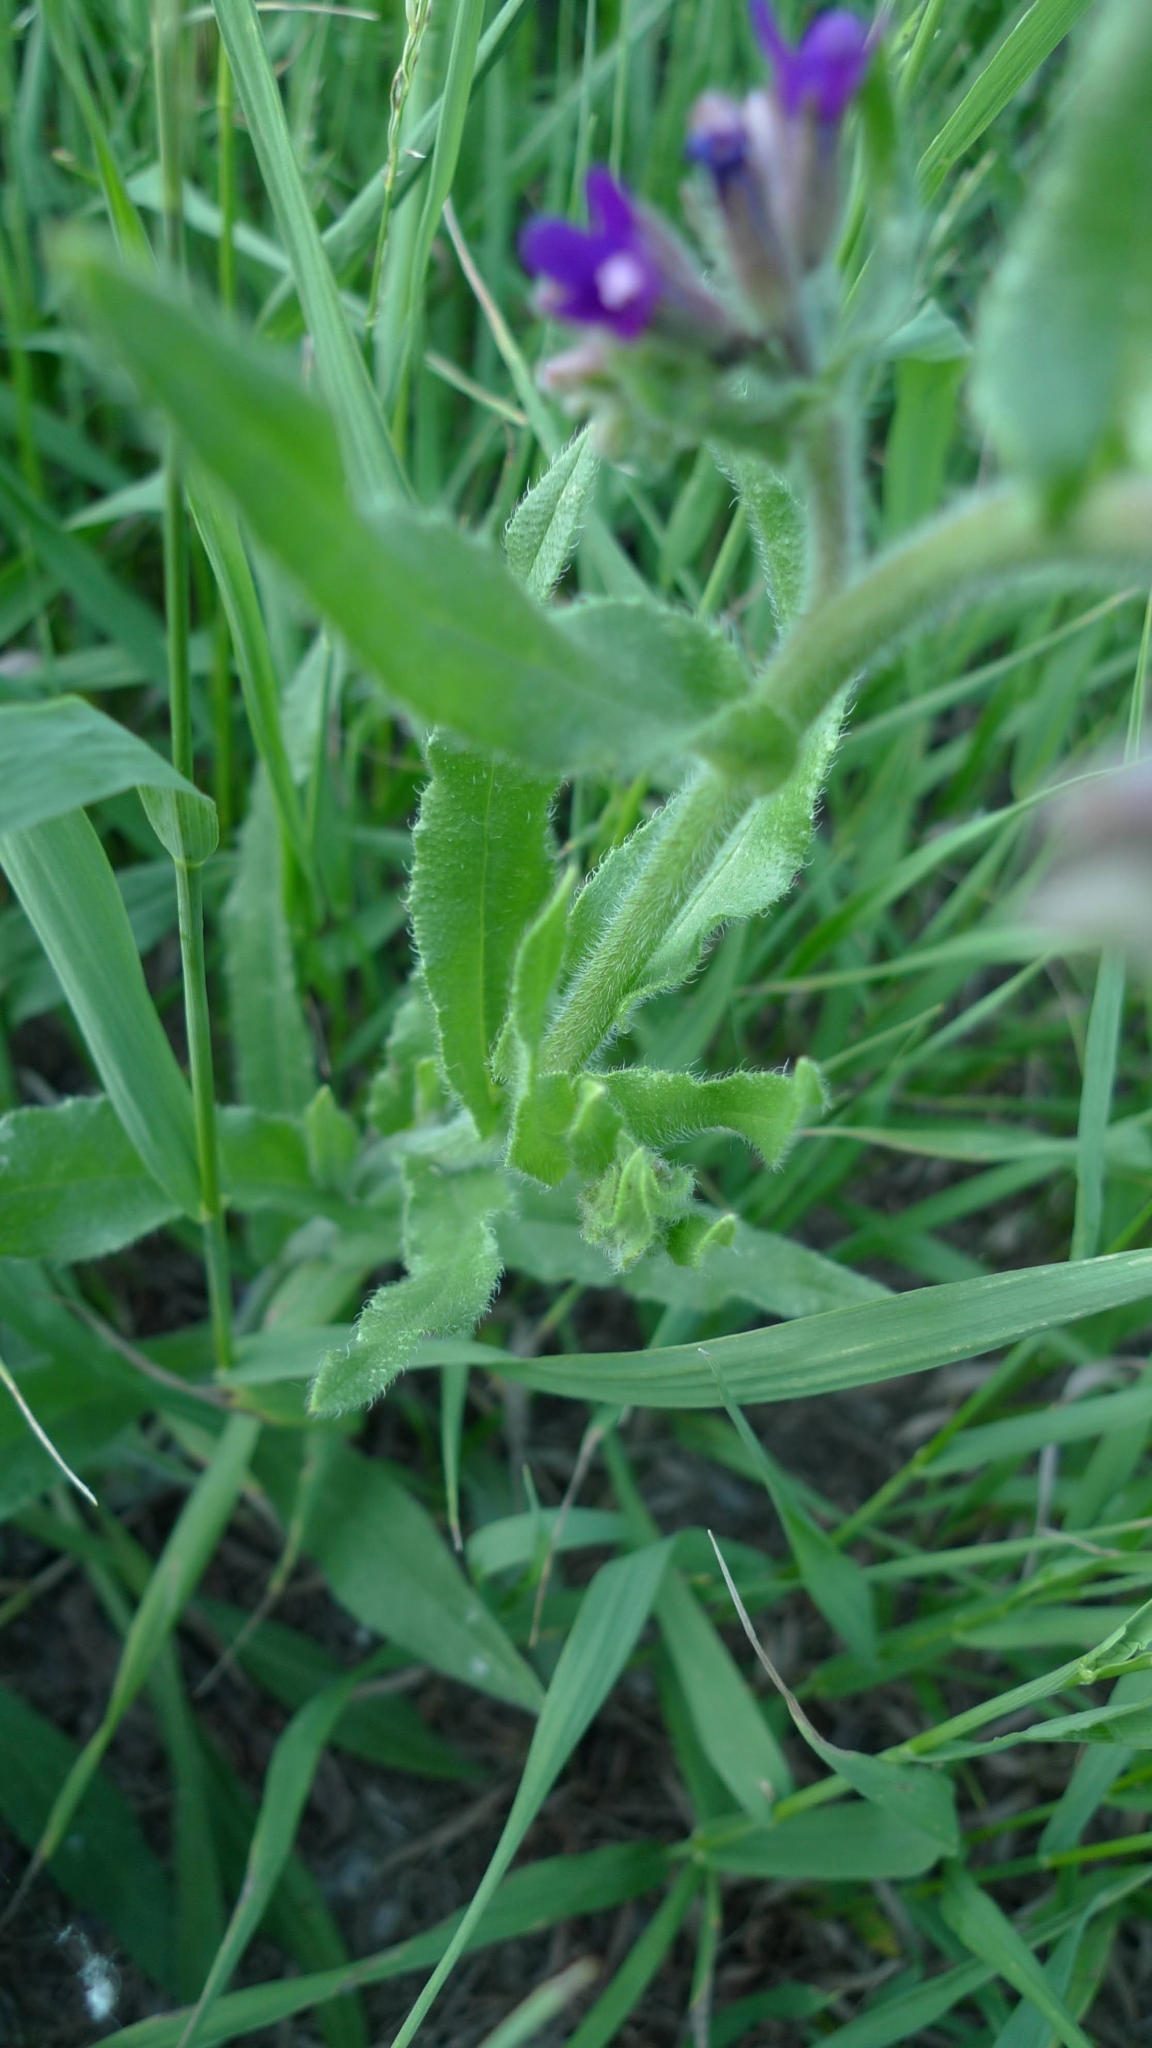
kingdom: Plantae
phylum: Tracheophyta
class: Magnoliopsida
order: Boraginales
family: Boraginaceae
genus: Anchusa
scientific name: Anchusa officinalis
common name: Alkanet
